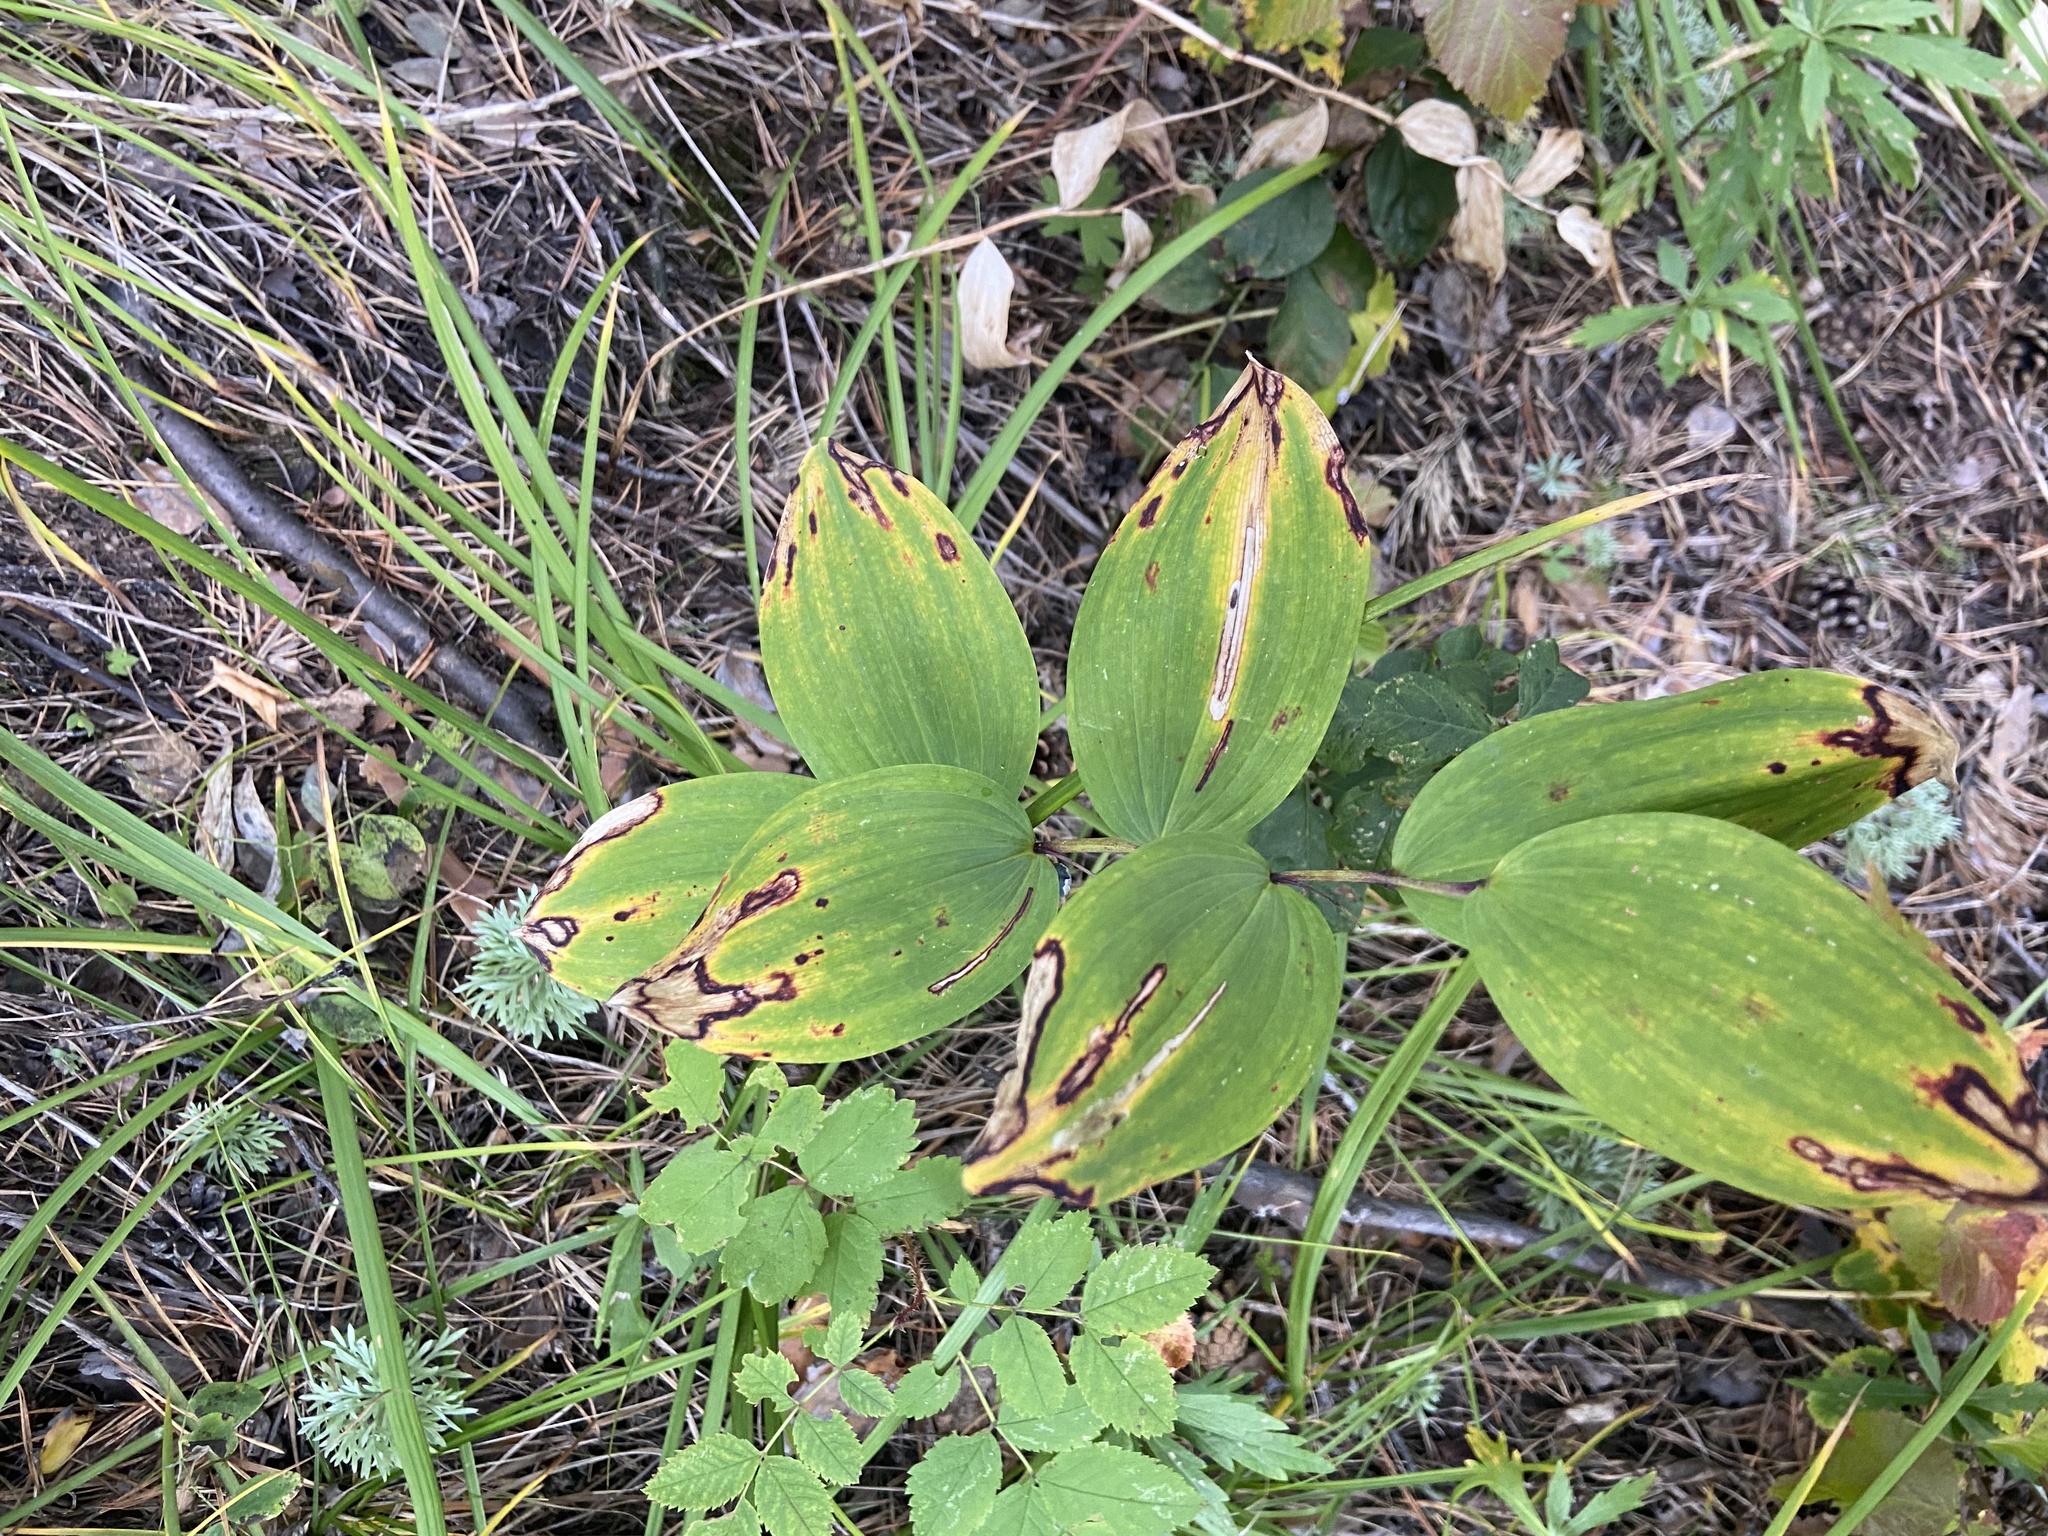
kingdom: Plantae
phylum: Tracheophyta
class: Liliopsida
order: Asparagales
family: Asparagaceae
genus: Polygonatum
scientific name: Polygonatum odoratum
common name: Angular solomon's-seal
